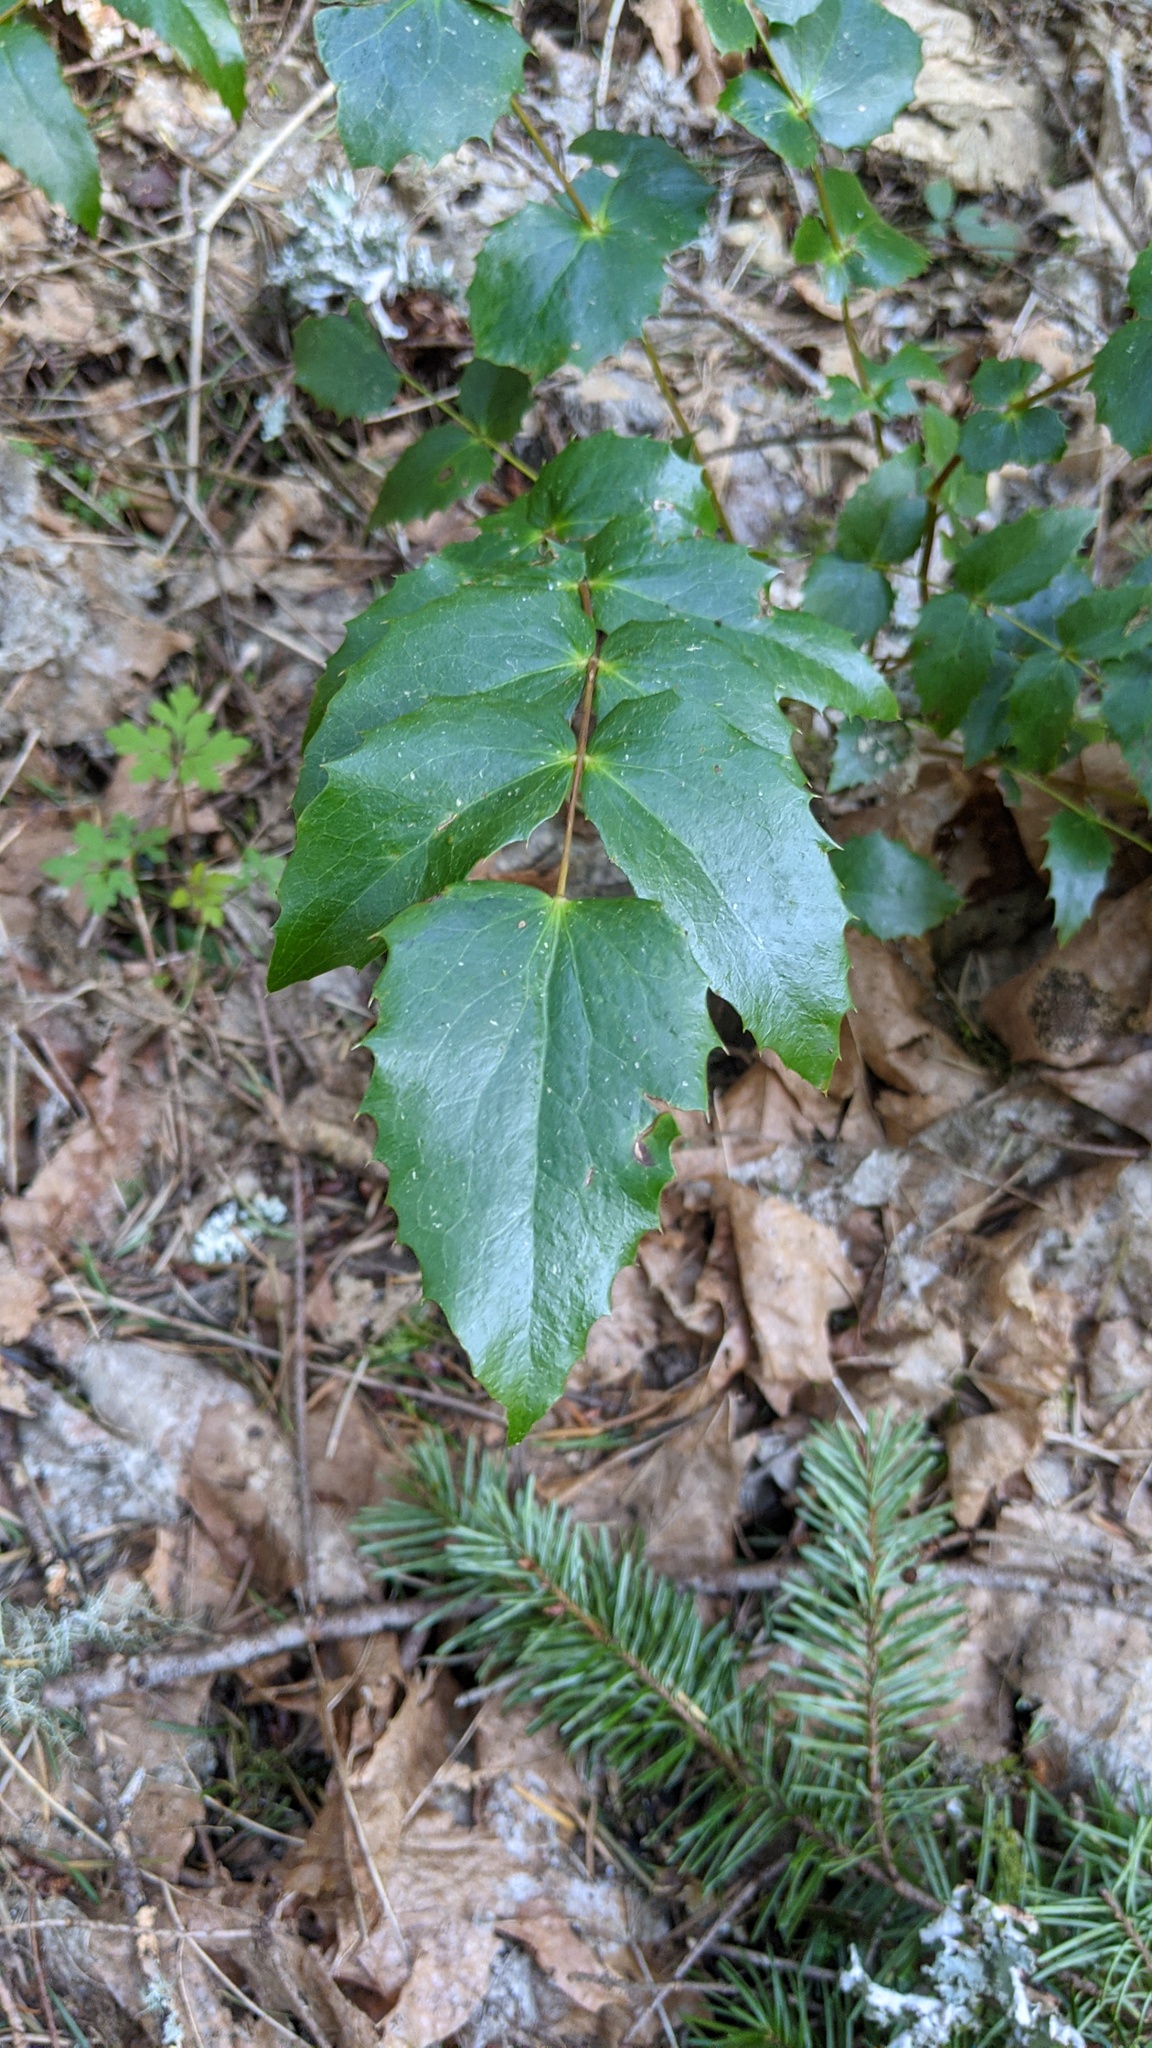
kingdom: Plantae
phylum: Tracheophyta
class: Magnoliopsida
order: Ranunculales
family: Berberidaceae
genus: Mahonia
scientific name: Mahonia nervosa
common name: Cascade oregon-grape
